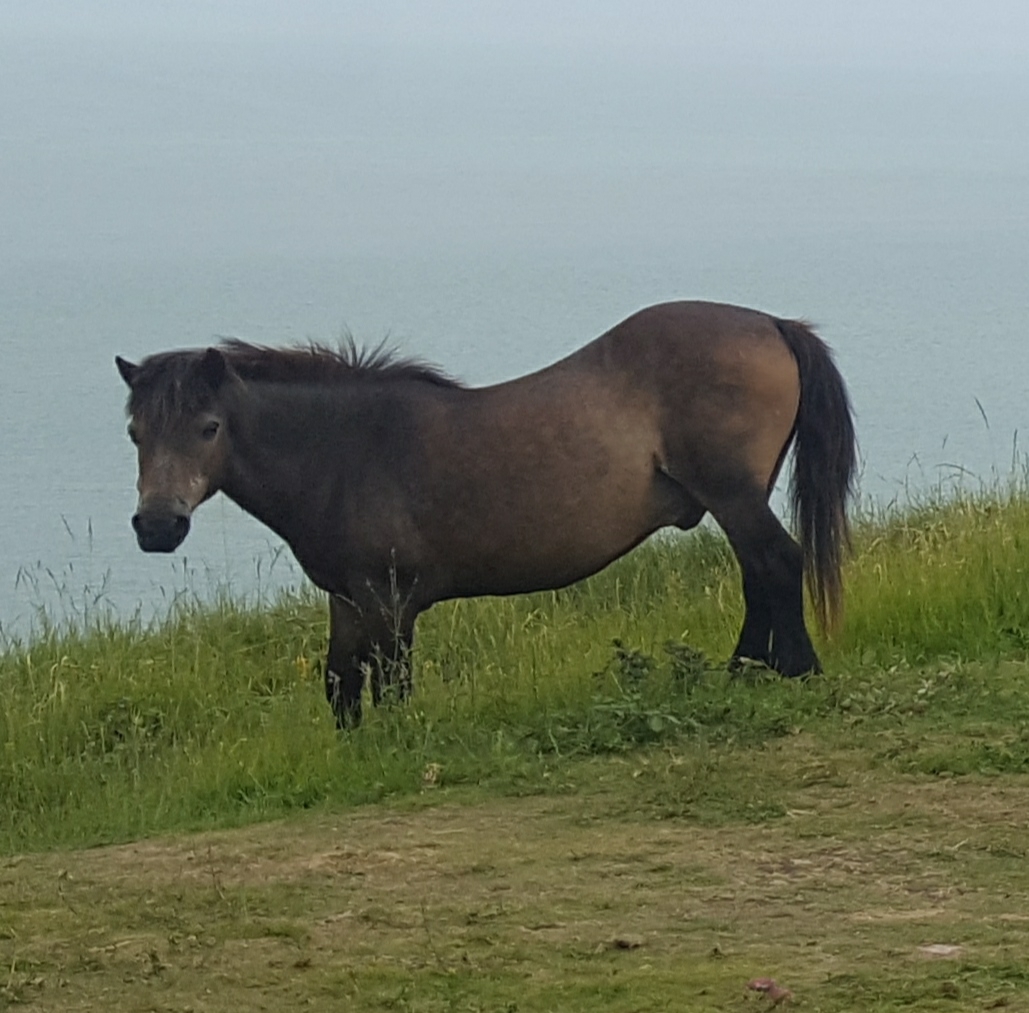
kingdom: Animalia
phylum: Chordata
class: Mammalia
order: Perissodactyla
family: Equidae
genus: Equus
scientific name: Equus caballus
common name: Horse
